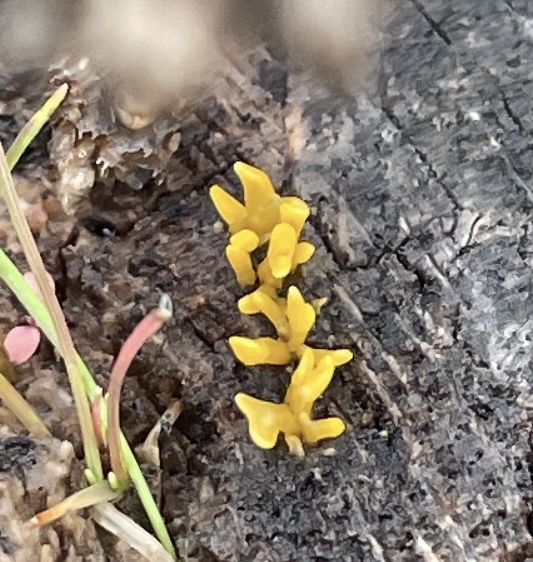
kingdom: Fungi
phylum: Basidiomycota
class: Dacrymycetes
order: Dacrymycetales
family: Dacrymycetaceae
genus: Calocera
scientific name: Calocera cornea
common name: Small stagshorn
